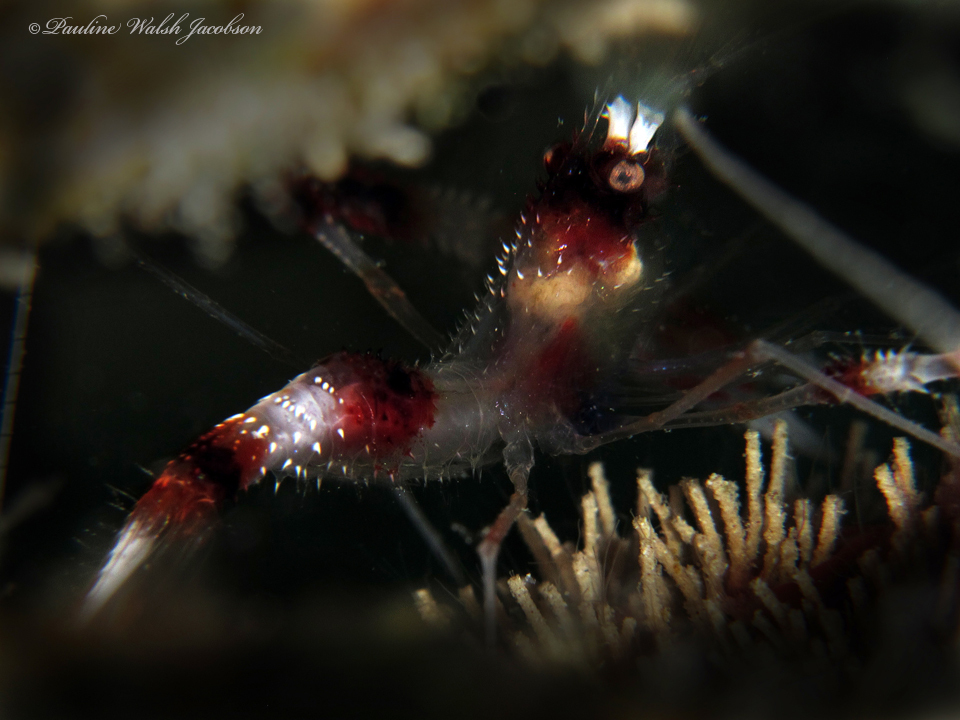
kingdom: Animalia
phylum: Arthropoda
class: Malacostraca
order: Decapoda
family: Stenopodidae
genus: Stenopus
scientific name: Stenopus hispidus
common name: Banded coral shrimp
